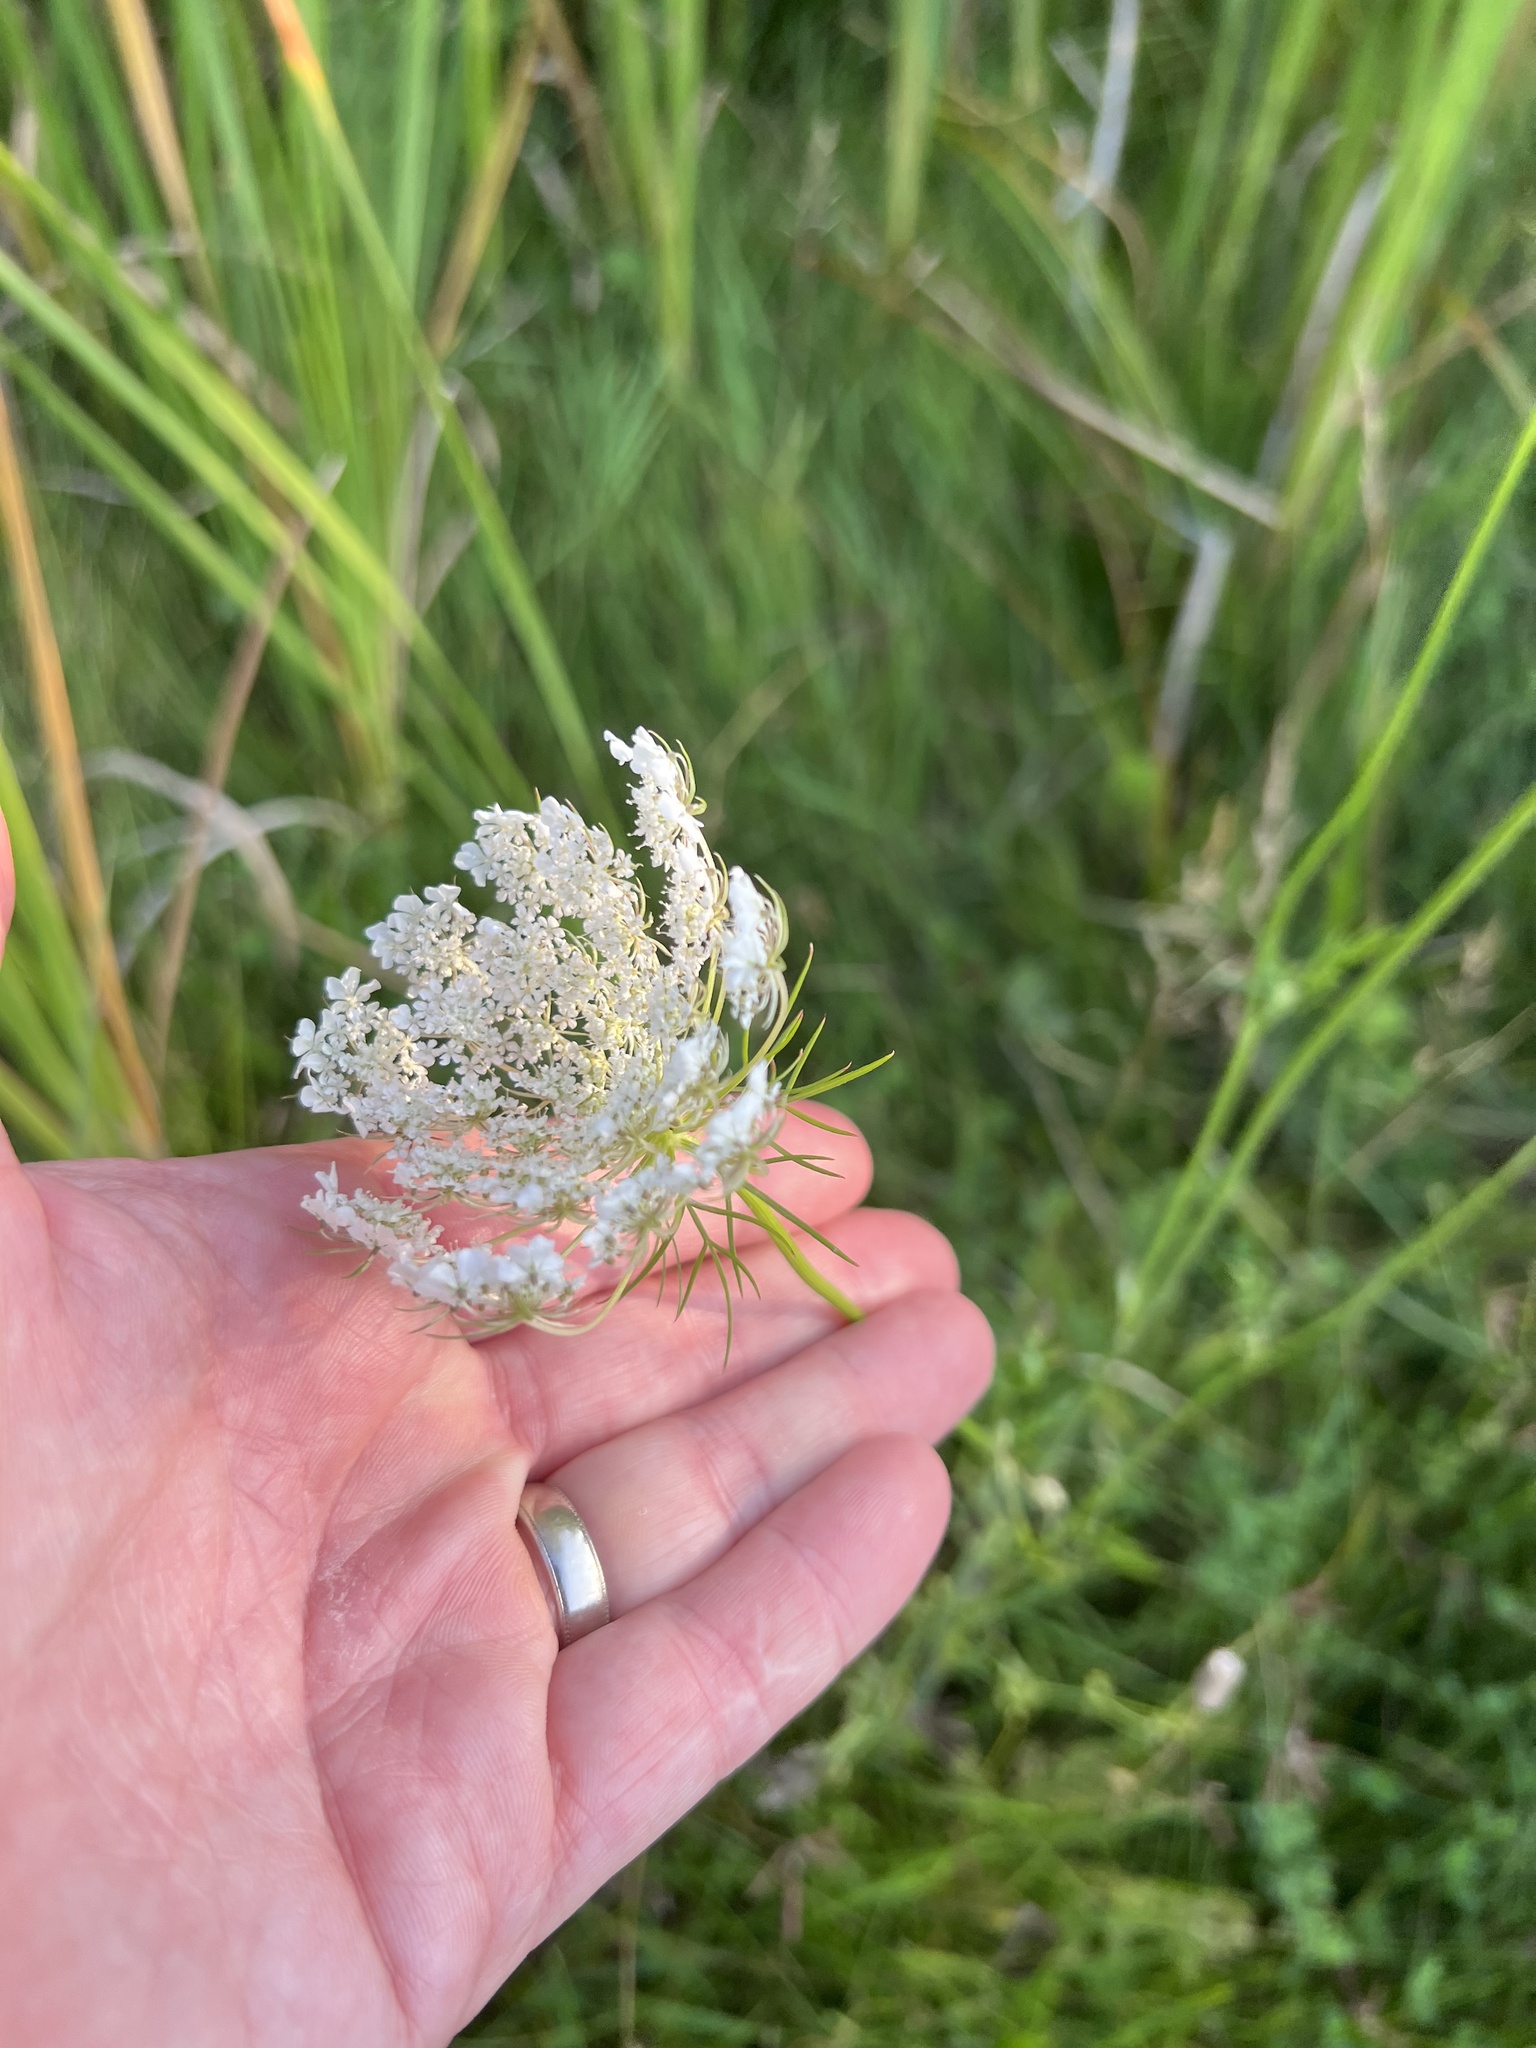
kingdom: Plantae
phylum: Tracheophyta
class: Magnoliopsida
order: Apiales
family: Apiaceae
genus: Daucus
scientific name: Daucus carota
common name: Wild carrot
